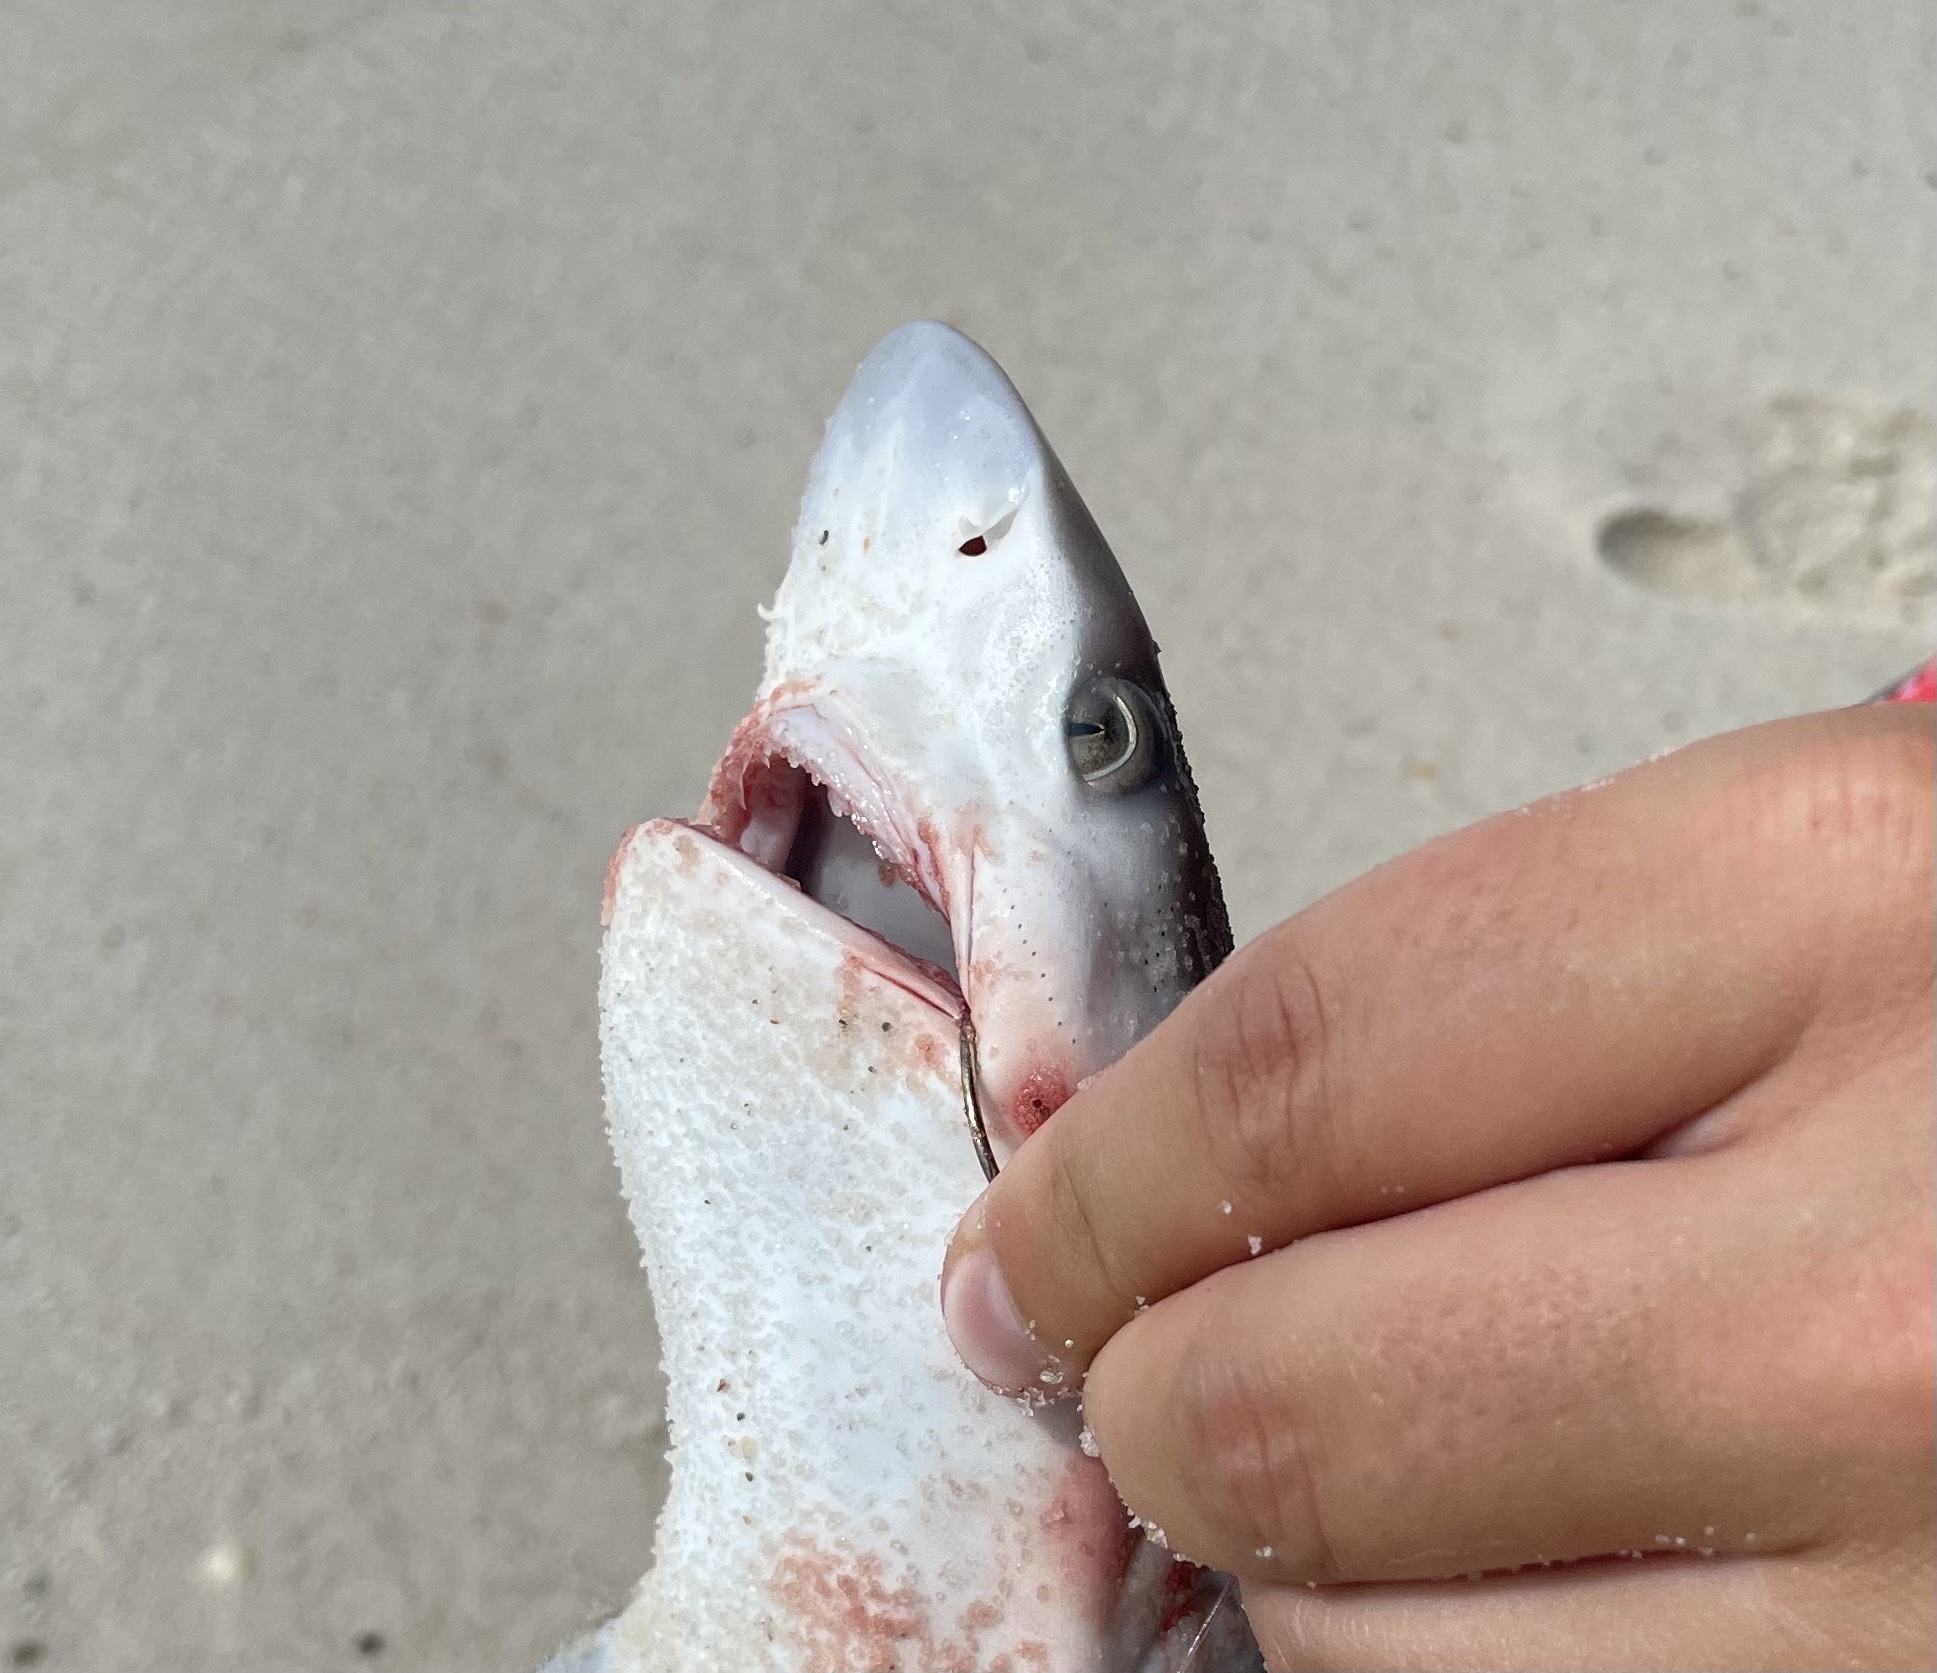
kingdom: Animalia
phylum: Chordata
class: Elasmobranchii
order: Carcharhiniformes
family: Carcharhinidae
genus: Rhizoprionodon
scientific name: Rhizoprionodon terraenovae
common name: Atlantic sharpnose shark
